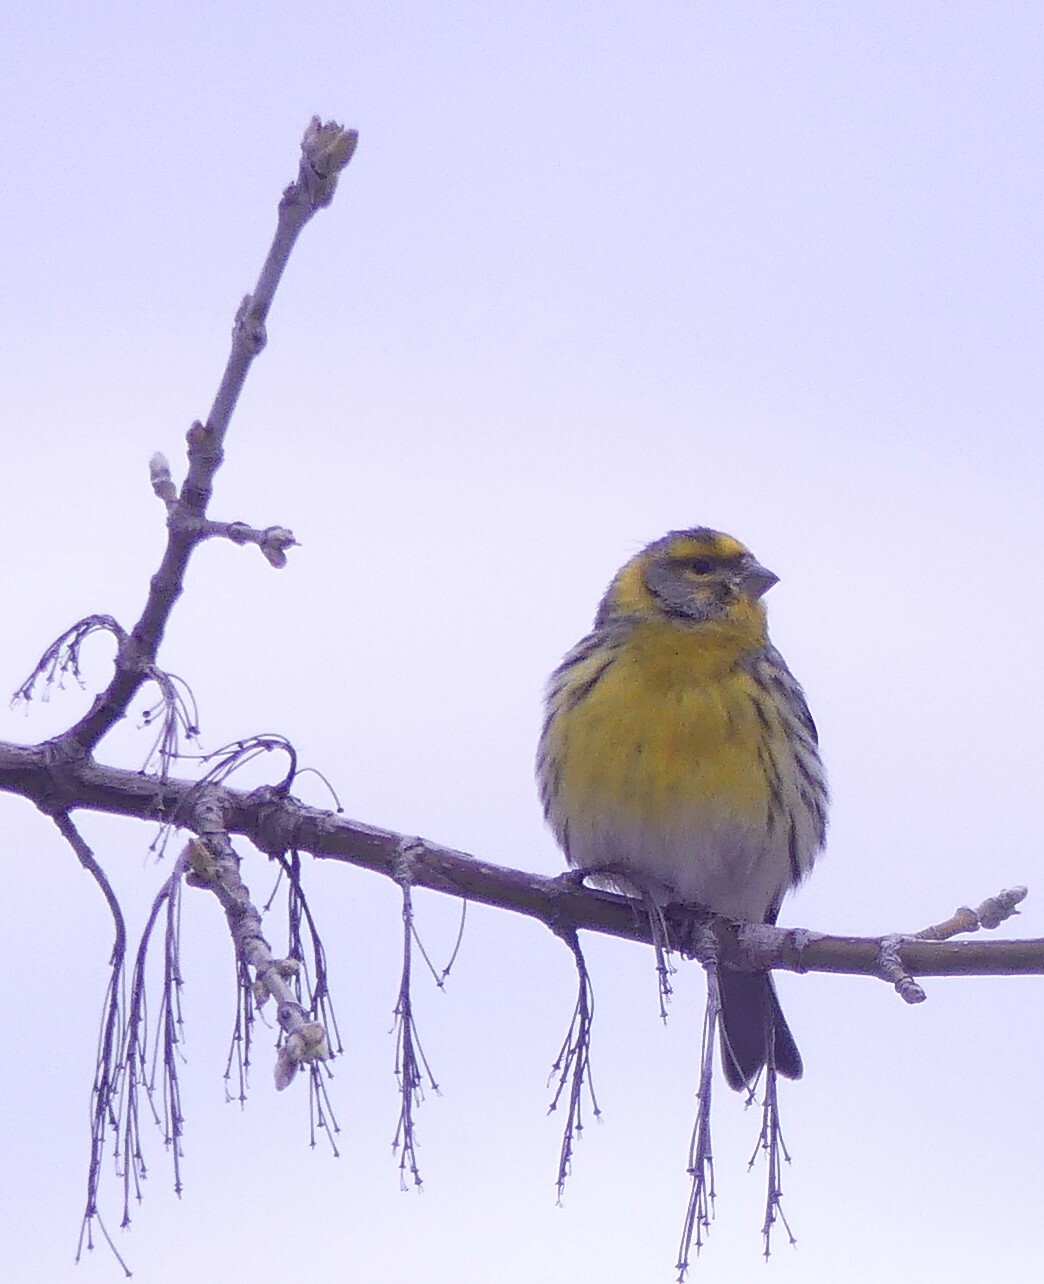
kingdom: Animalia
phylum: Chordata
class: Aves
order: Passeriformes
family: Fringillidae
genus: Serinus
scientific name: Serinus serinus
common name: European serin
